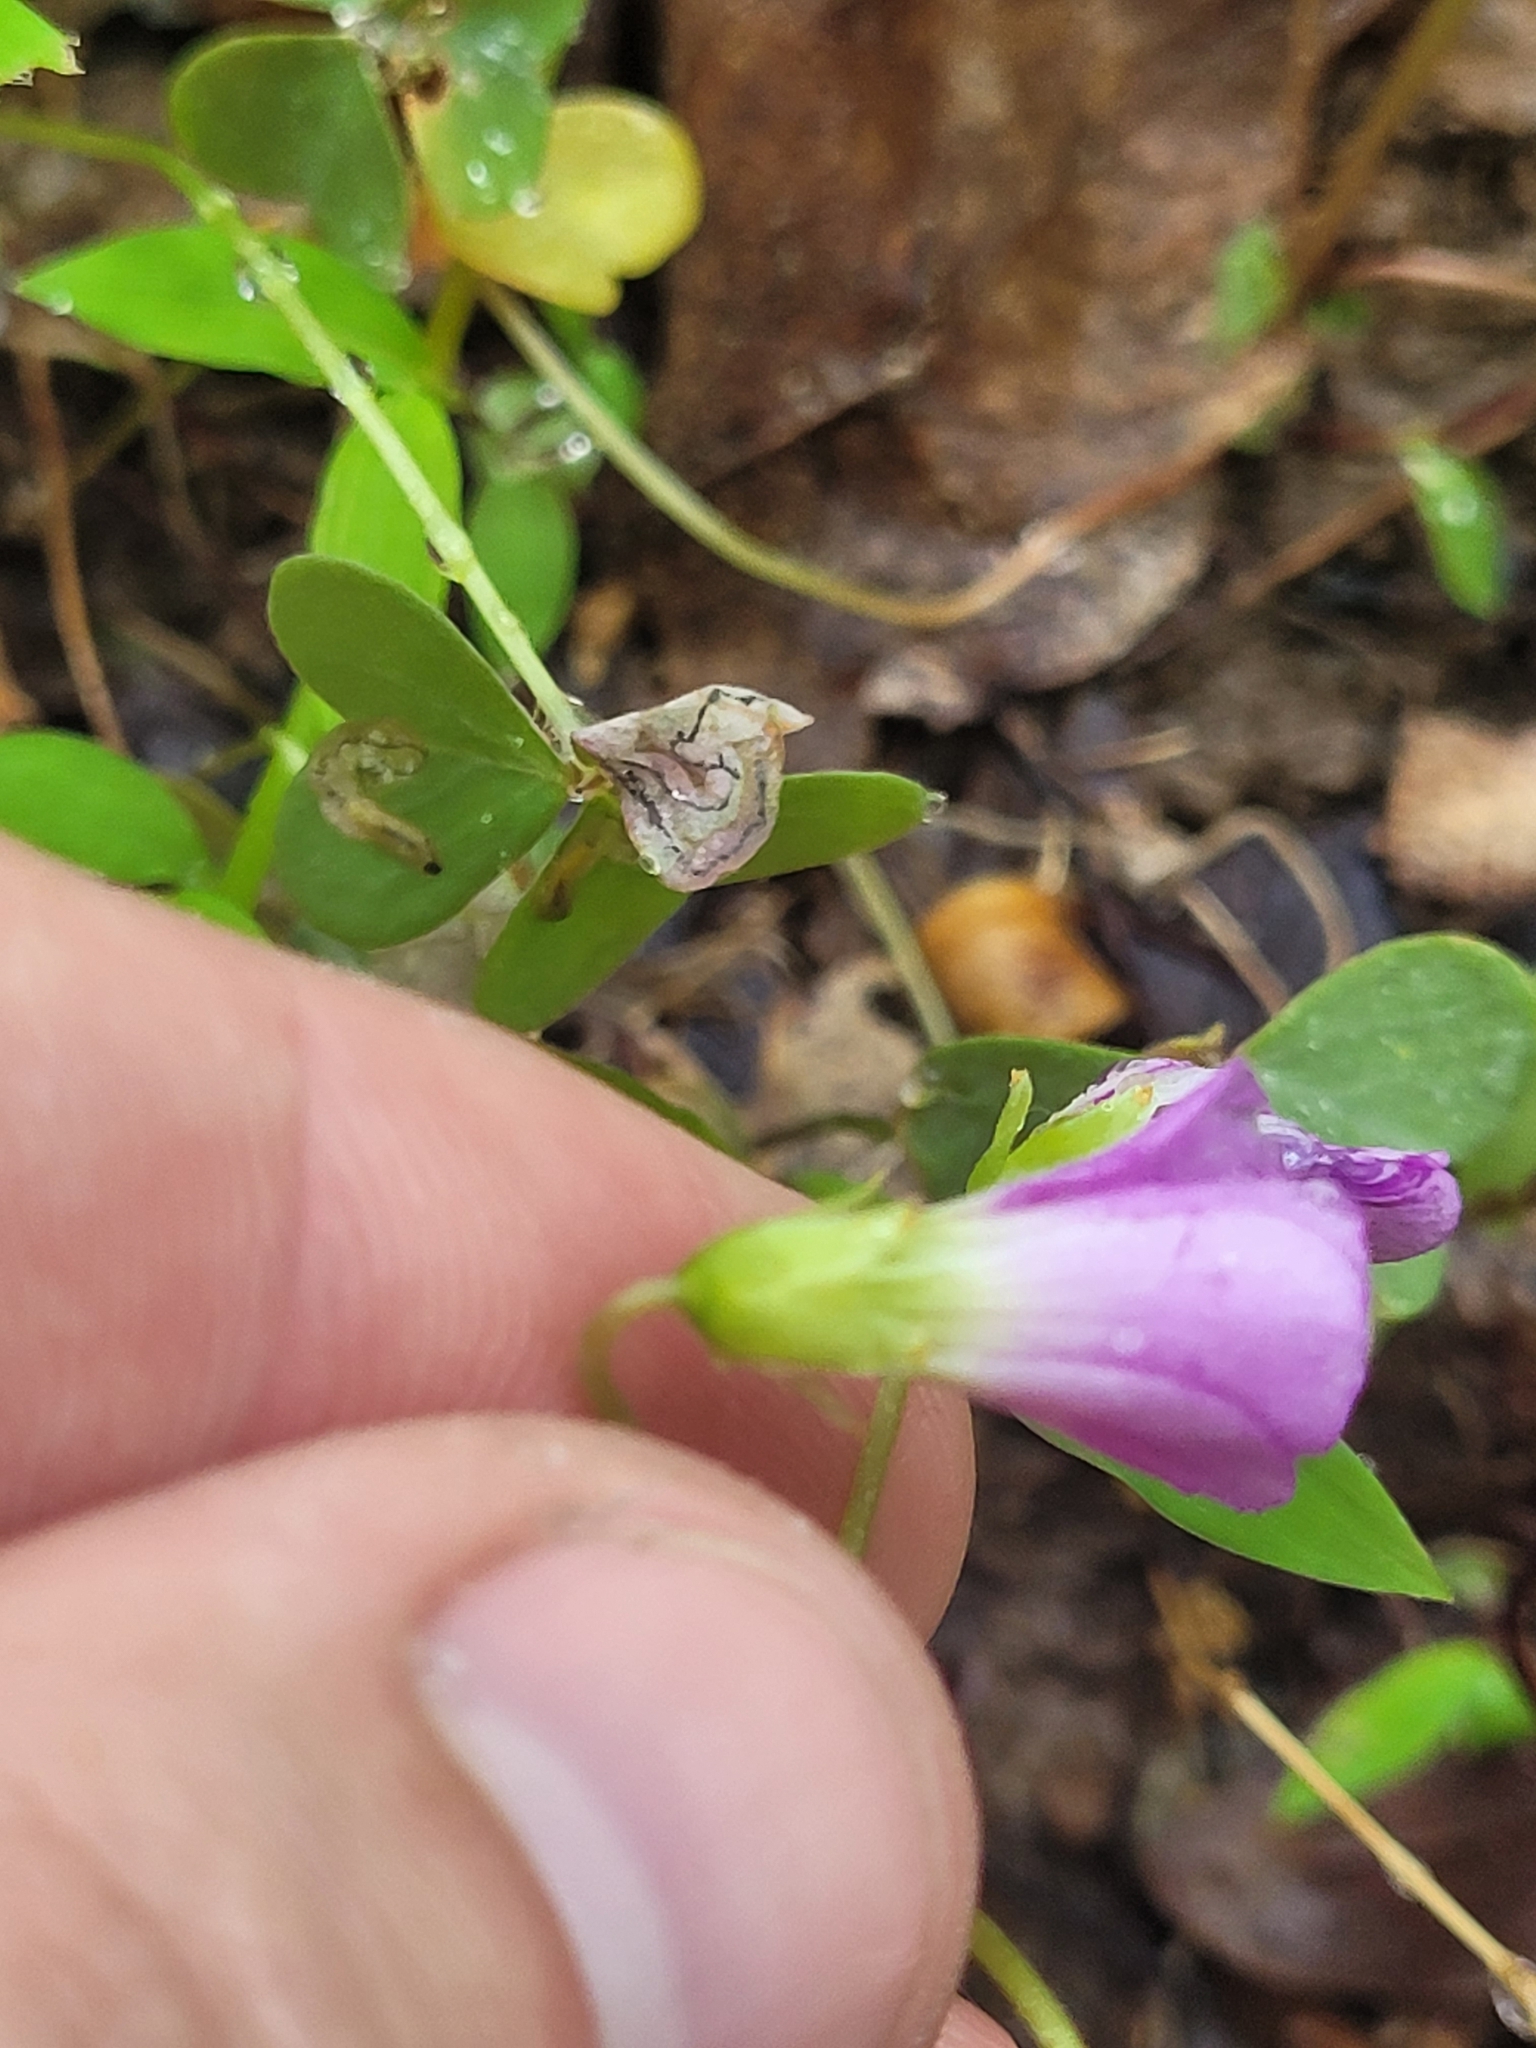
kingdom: Plantae
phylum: Tracheophyta
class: Magnoliopsida
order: Oxalidales
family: Oxalidaceae
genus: Oxalis
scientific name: Oxalis violacea
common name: Violet wood-sorrel
